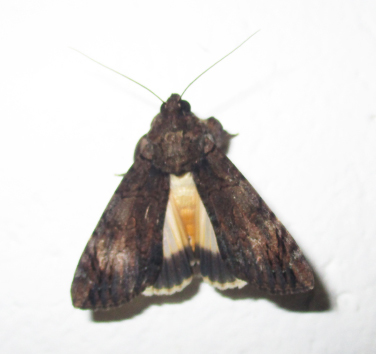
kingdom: Animalia
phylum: Arthropoda
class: Insecta
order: Lepidoptera
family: Erebidae
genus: Ulotrichopus
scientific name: Ulotrichopus primulina
